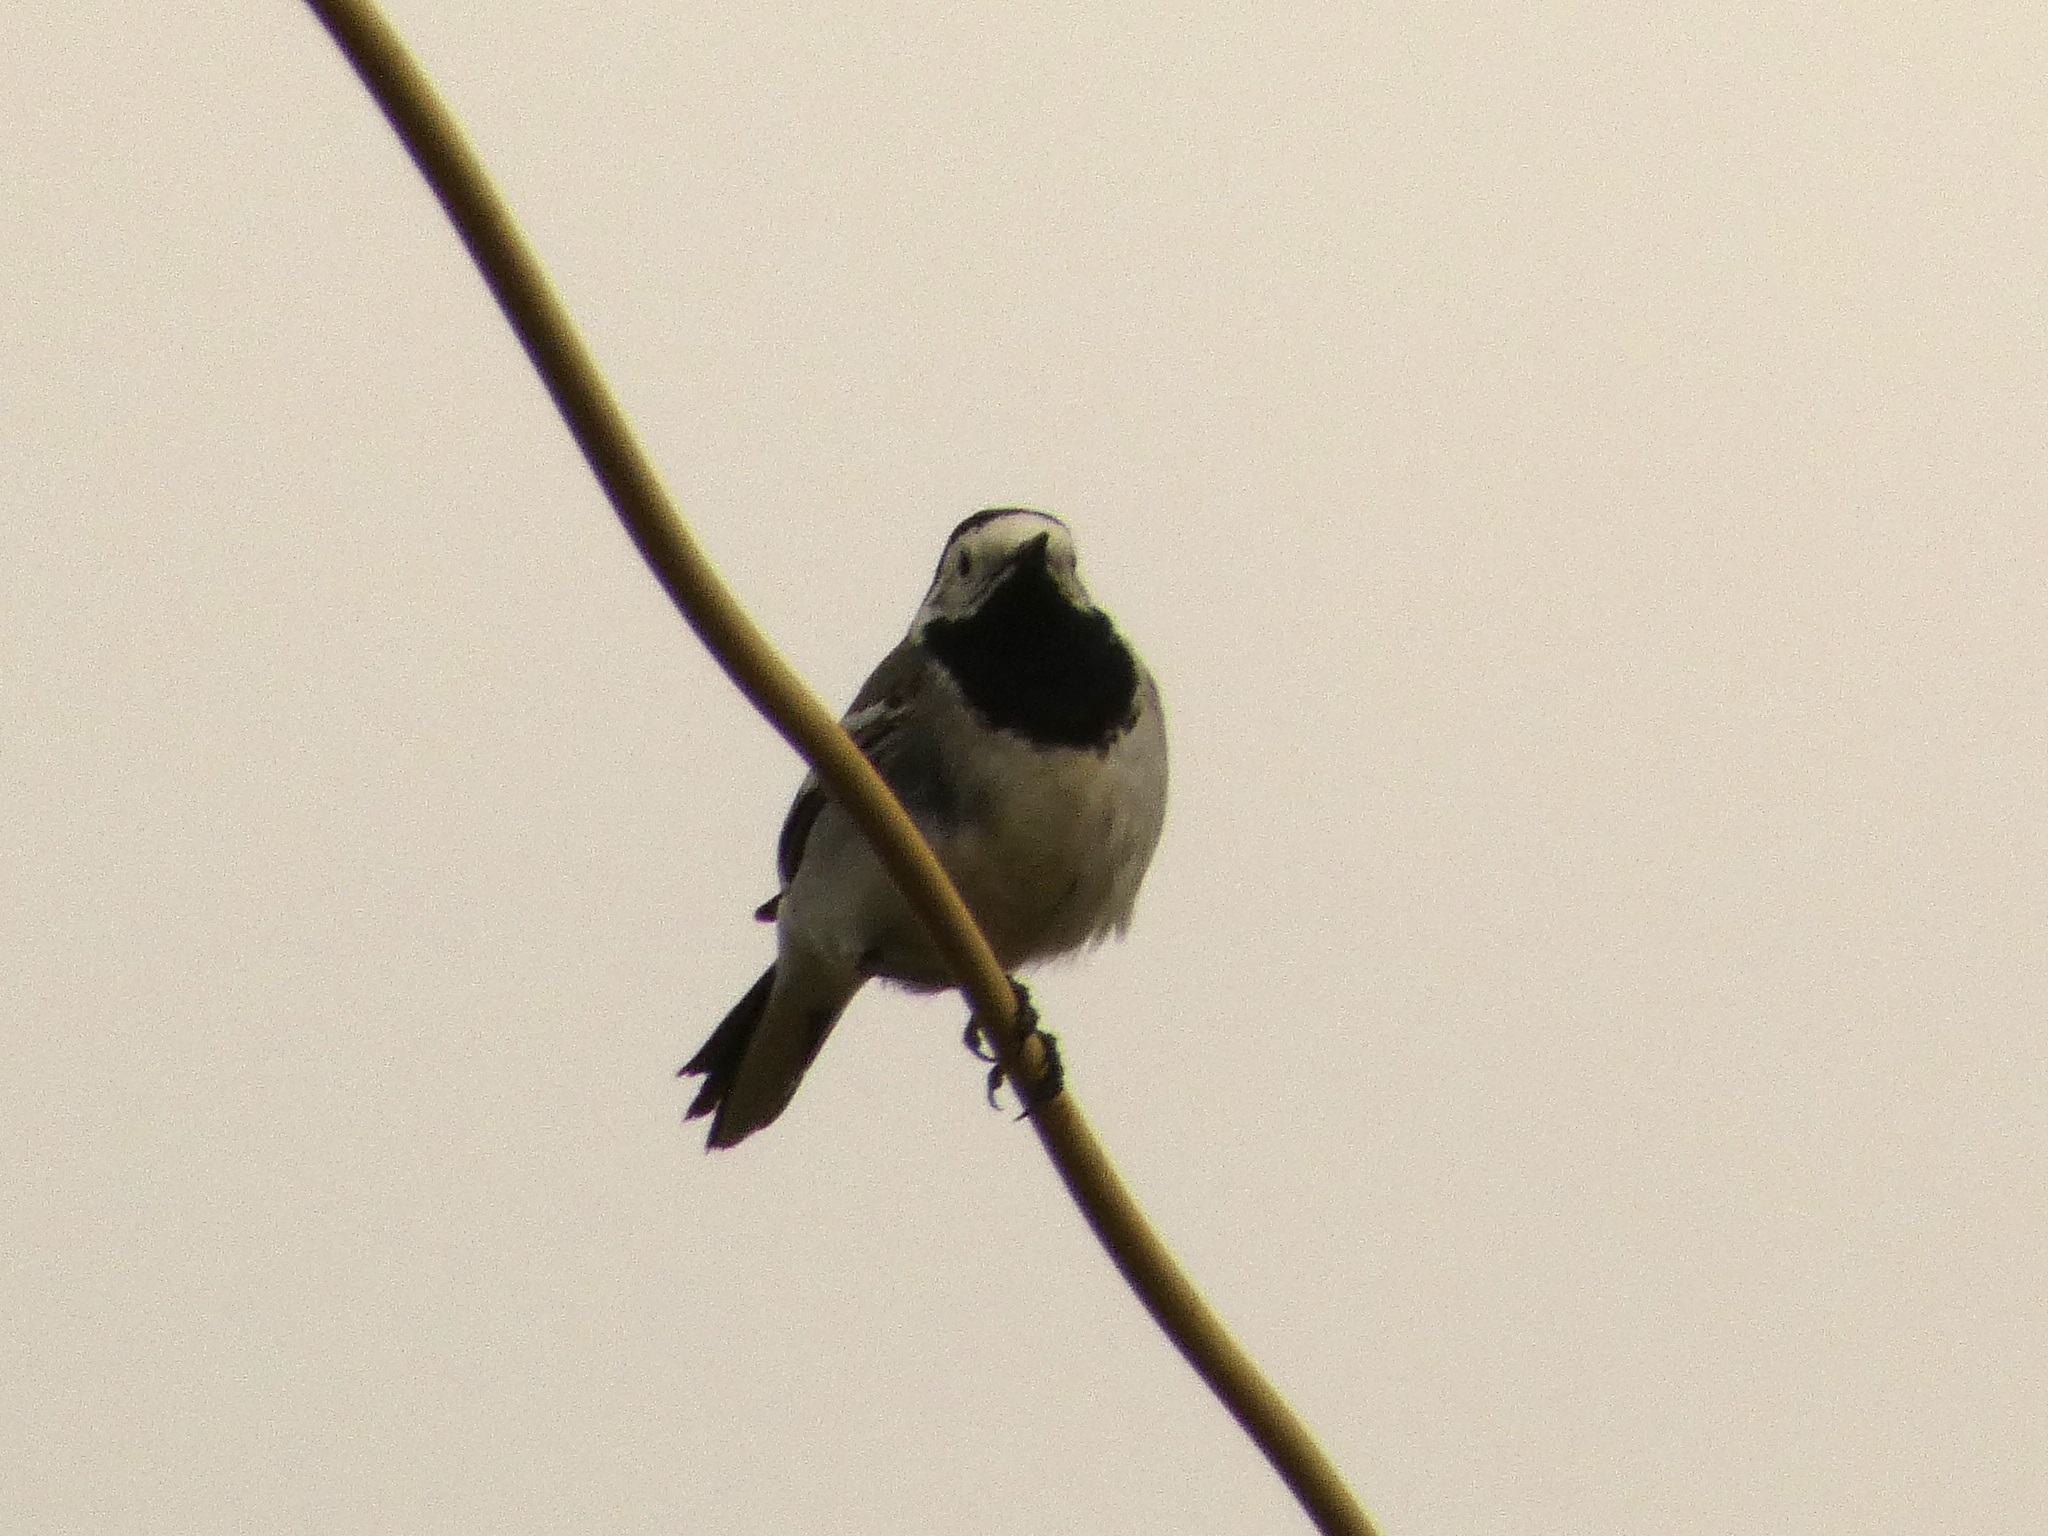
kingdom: Animalia
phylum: Chordata
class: Aves
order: Passeriformes
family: Motacillidae
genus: Motacilla
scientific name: Motacilla alba
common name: White wagtail
